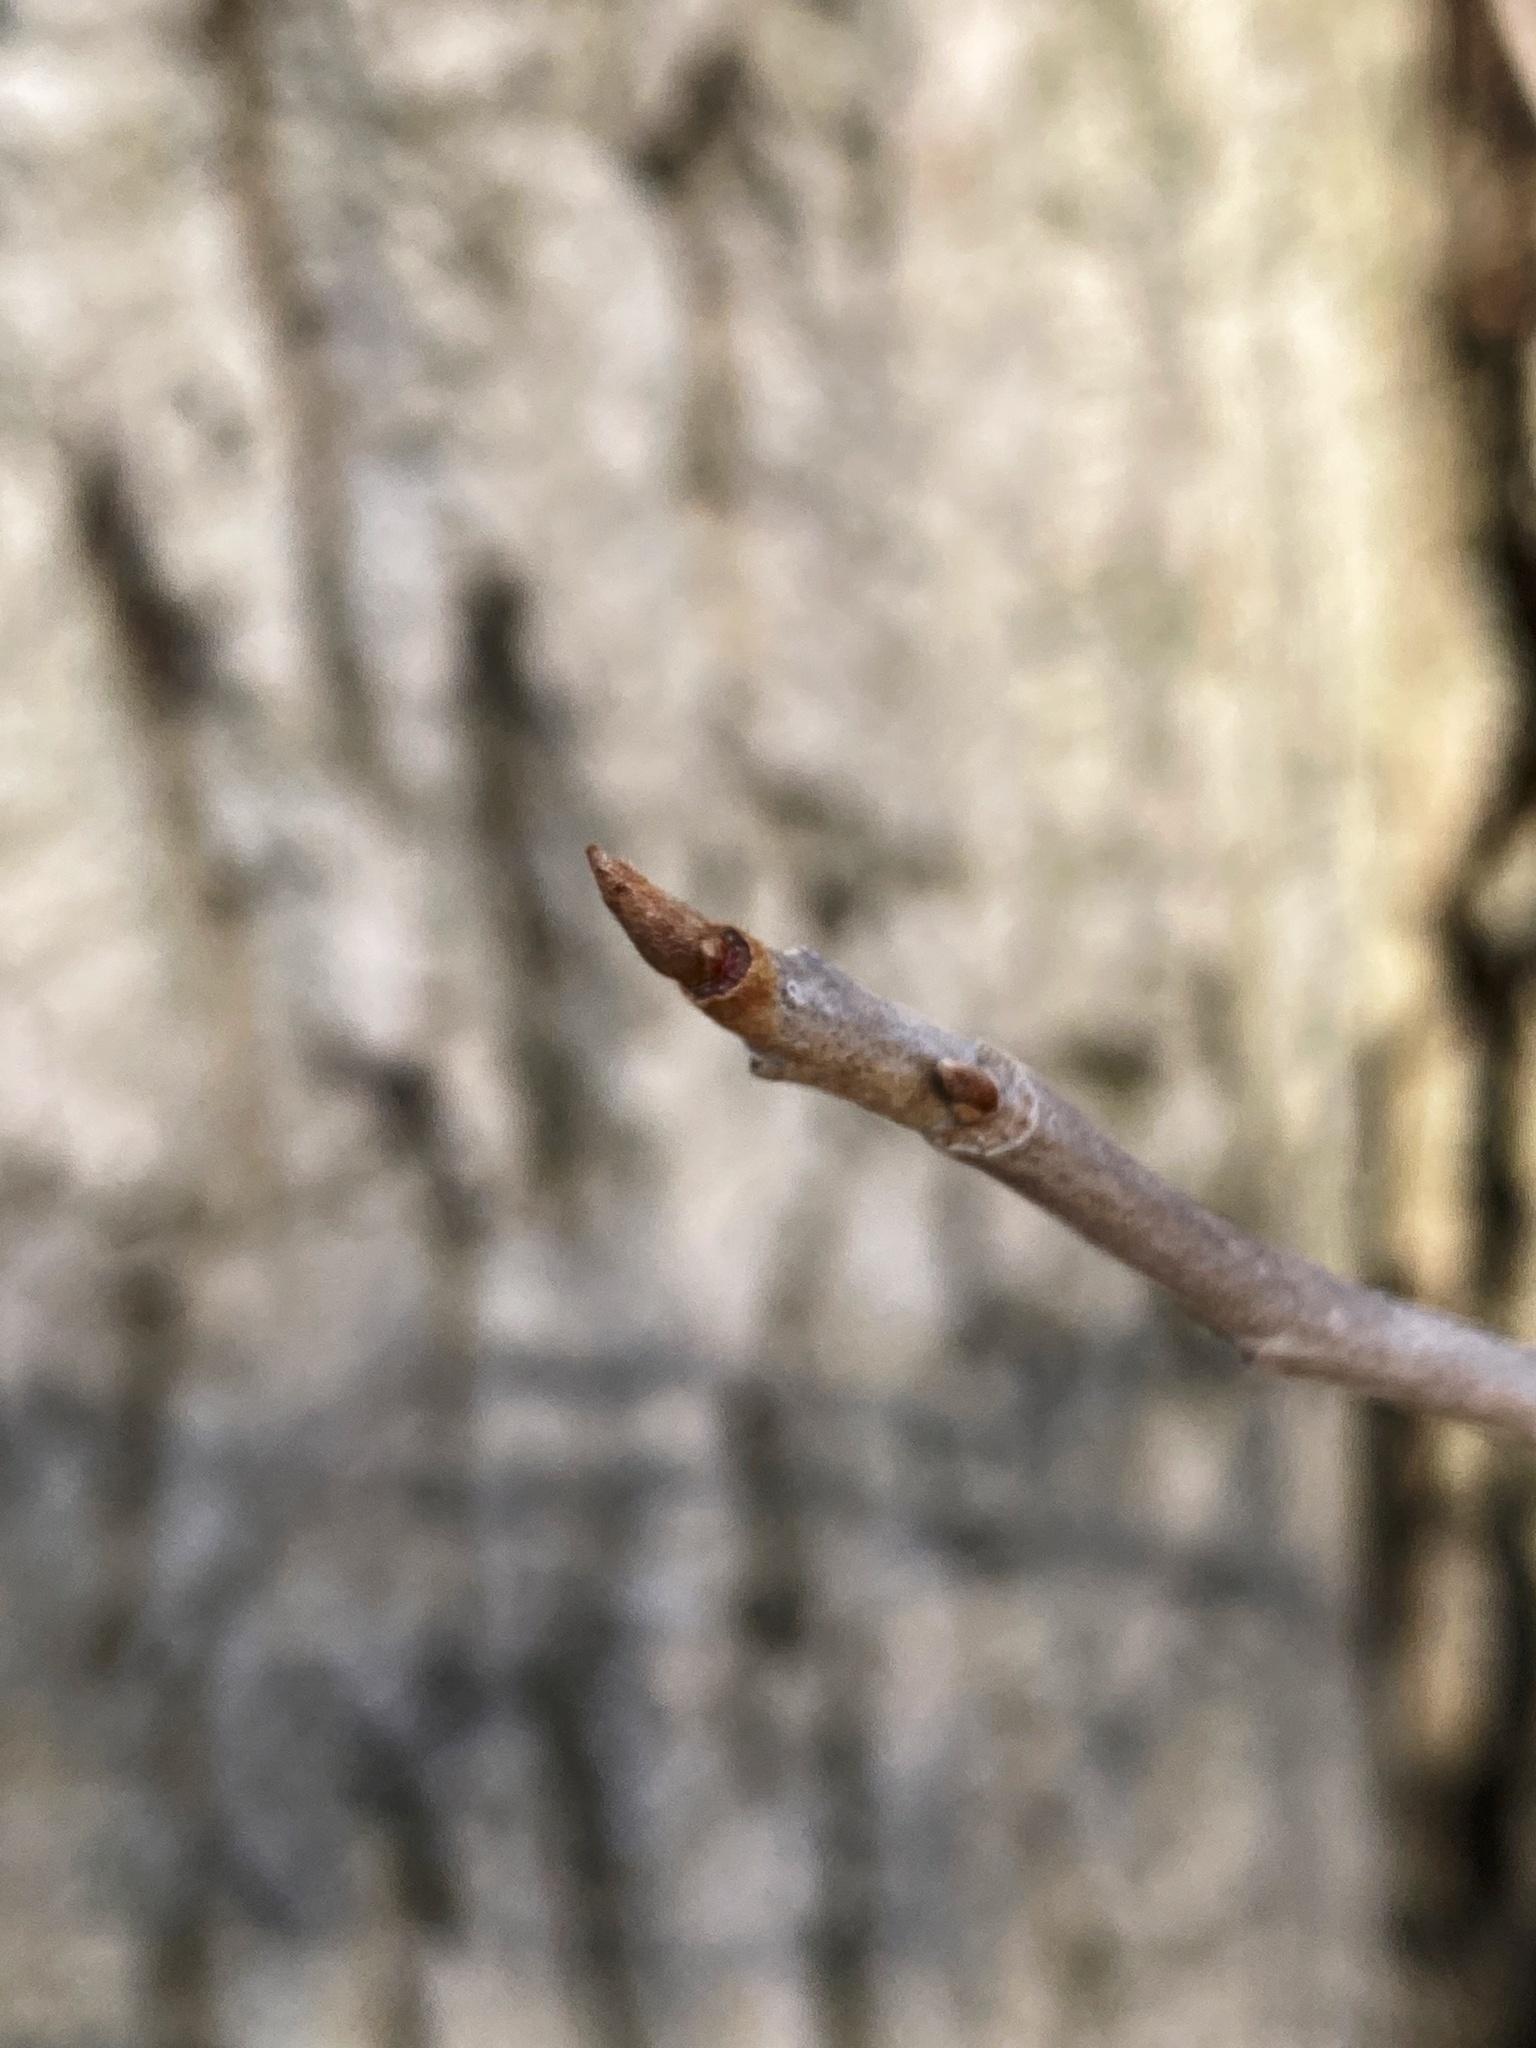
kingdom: Plantae
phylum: Tracheophyta
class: Magnoliopsida
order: Sapindales
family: Anacardiaceae
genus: Toxicodendron
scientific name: Toxicodendron radicans
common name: Poison ivy
